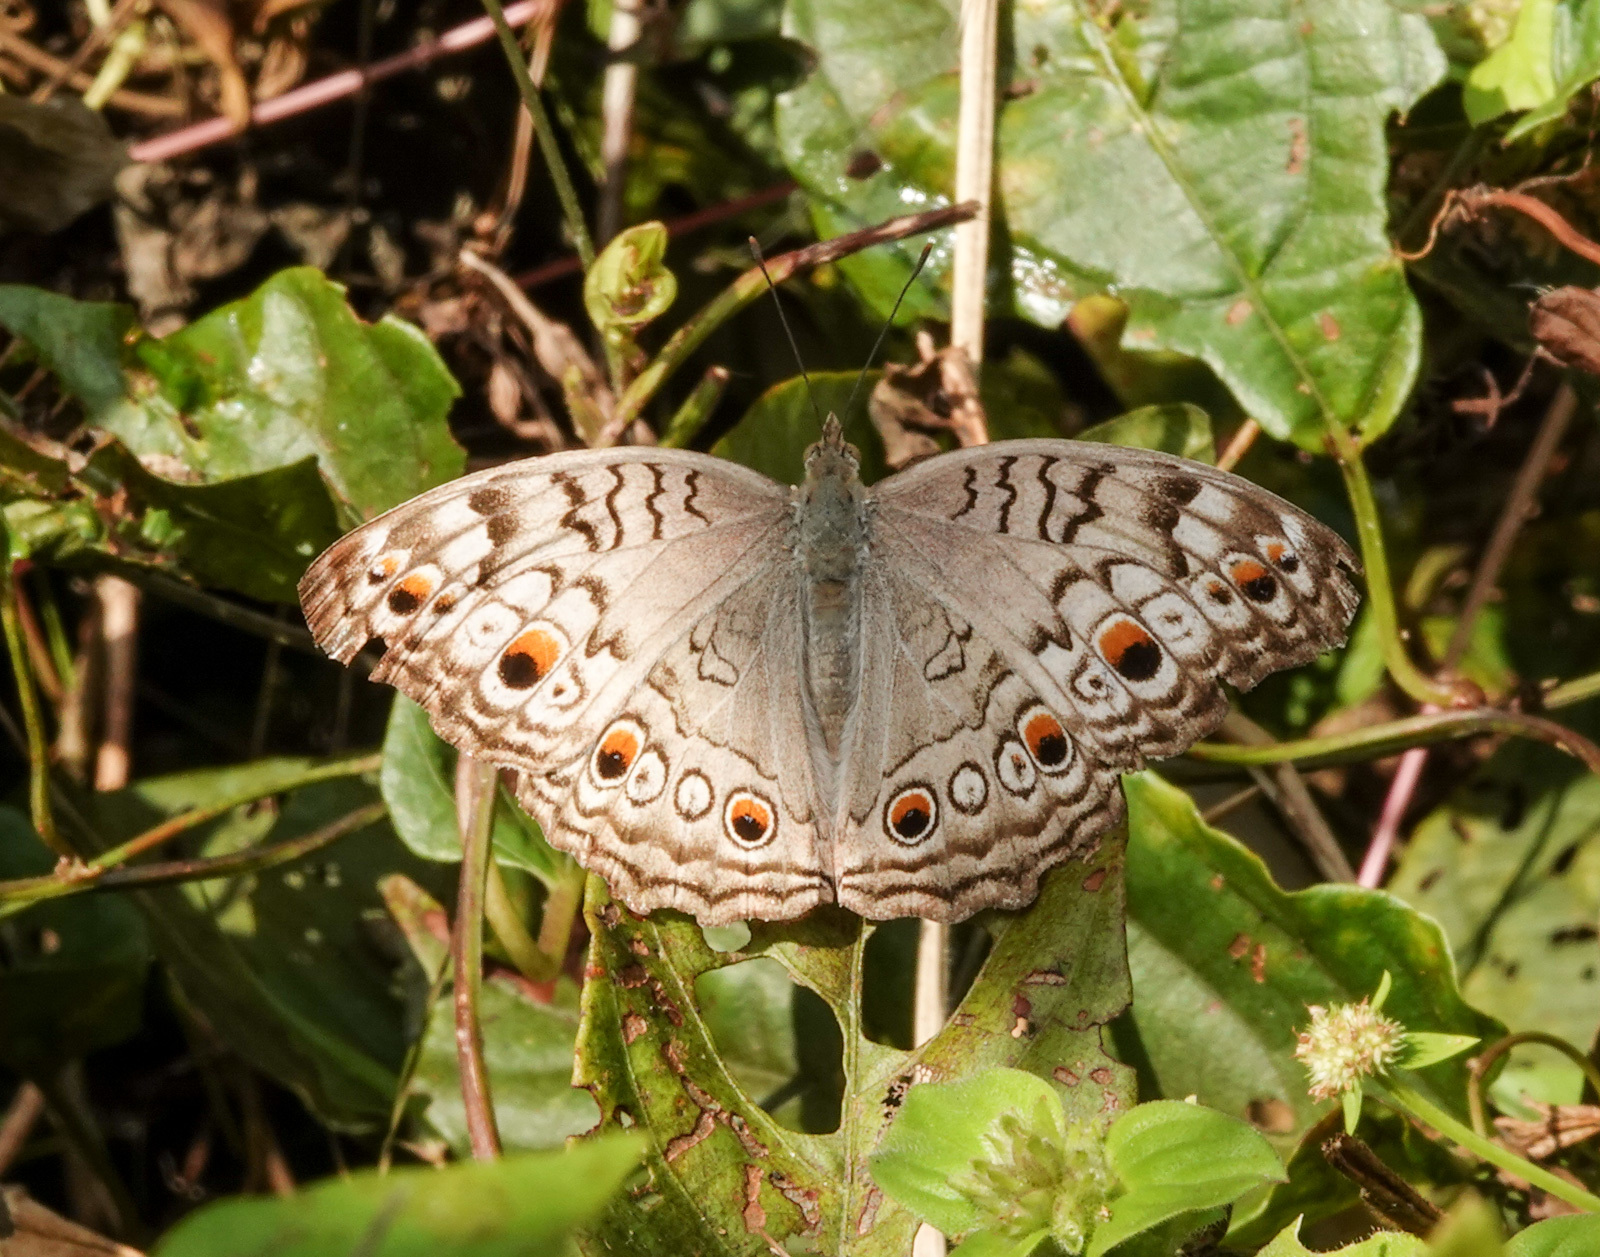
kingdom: Animalia
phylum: Arthropoda
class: Insecta
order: Lepidoptera
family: Nymphalidae
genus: Junonia
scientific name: Junonia atlites
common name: Grey pansy
